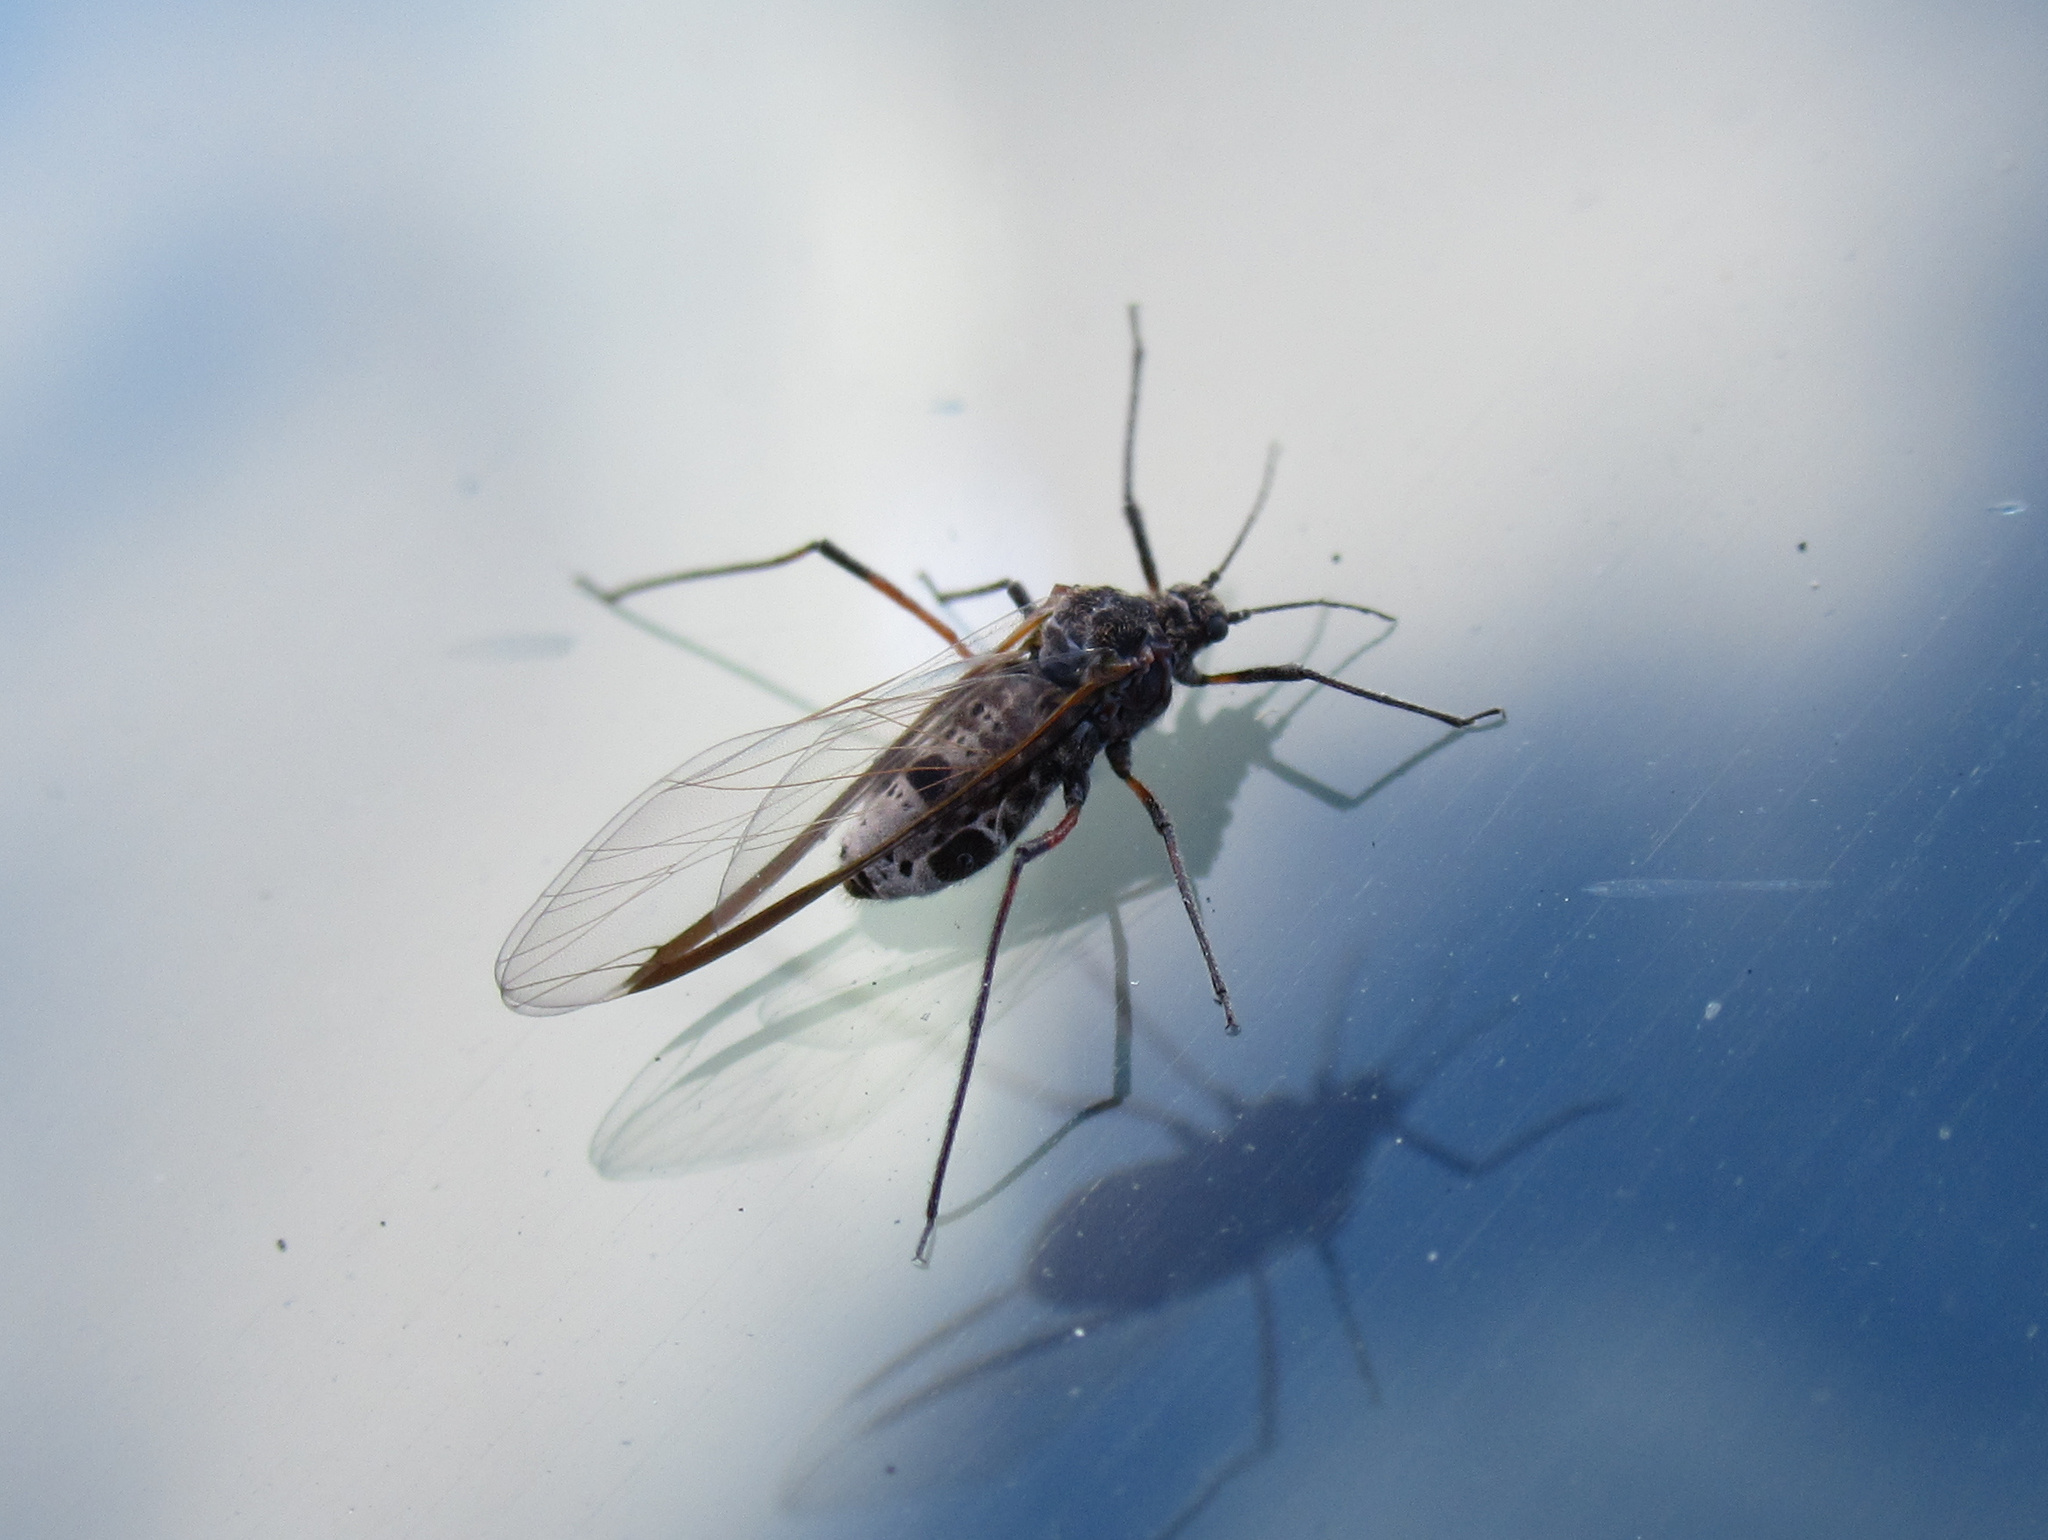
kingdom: Animalia
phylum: Arthropoda
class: Insecta
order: Hemiptera
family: Aphididae
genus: Tuberolachnus
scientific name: Tuberolachnus salignus
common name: Giant willow aphid
